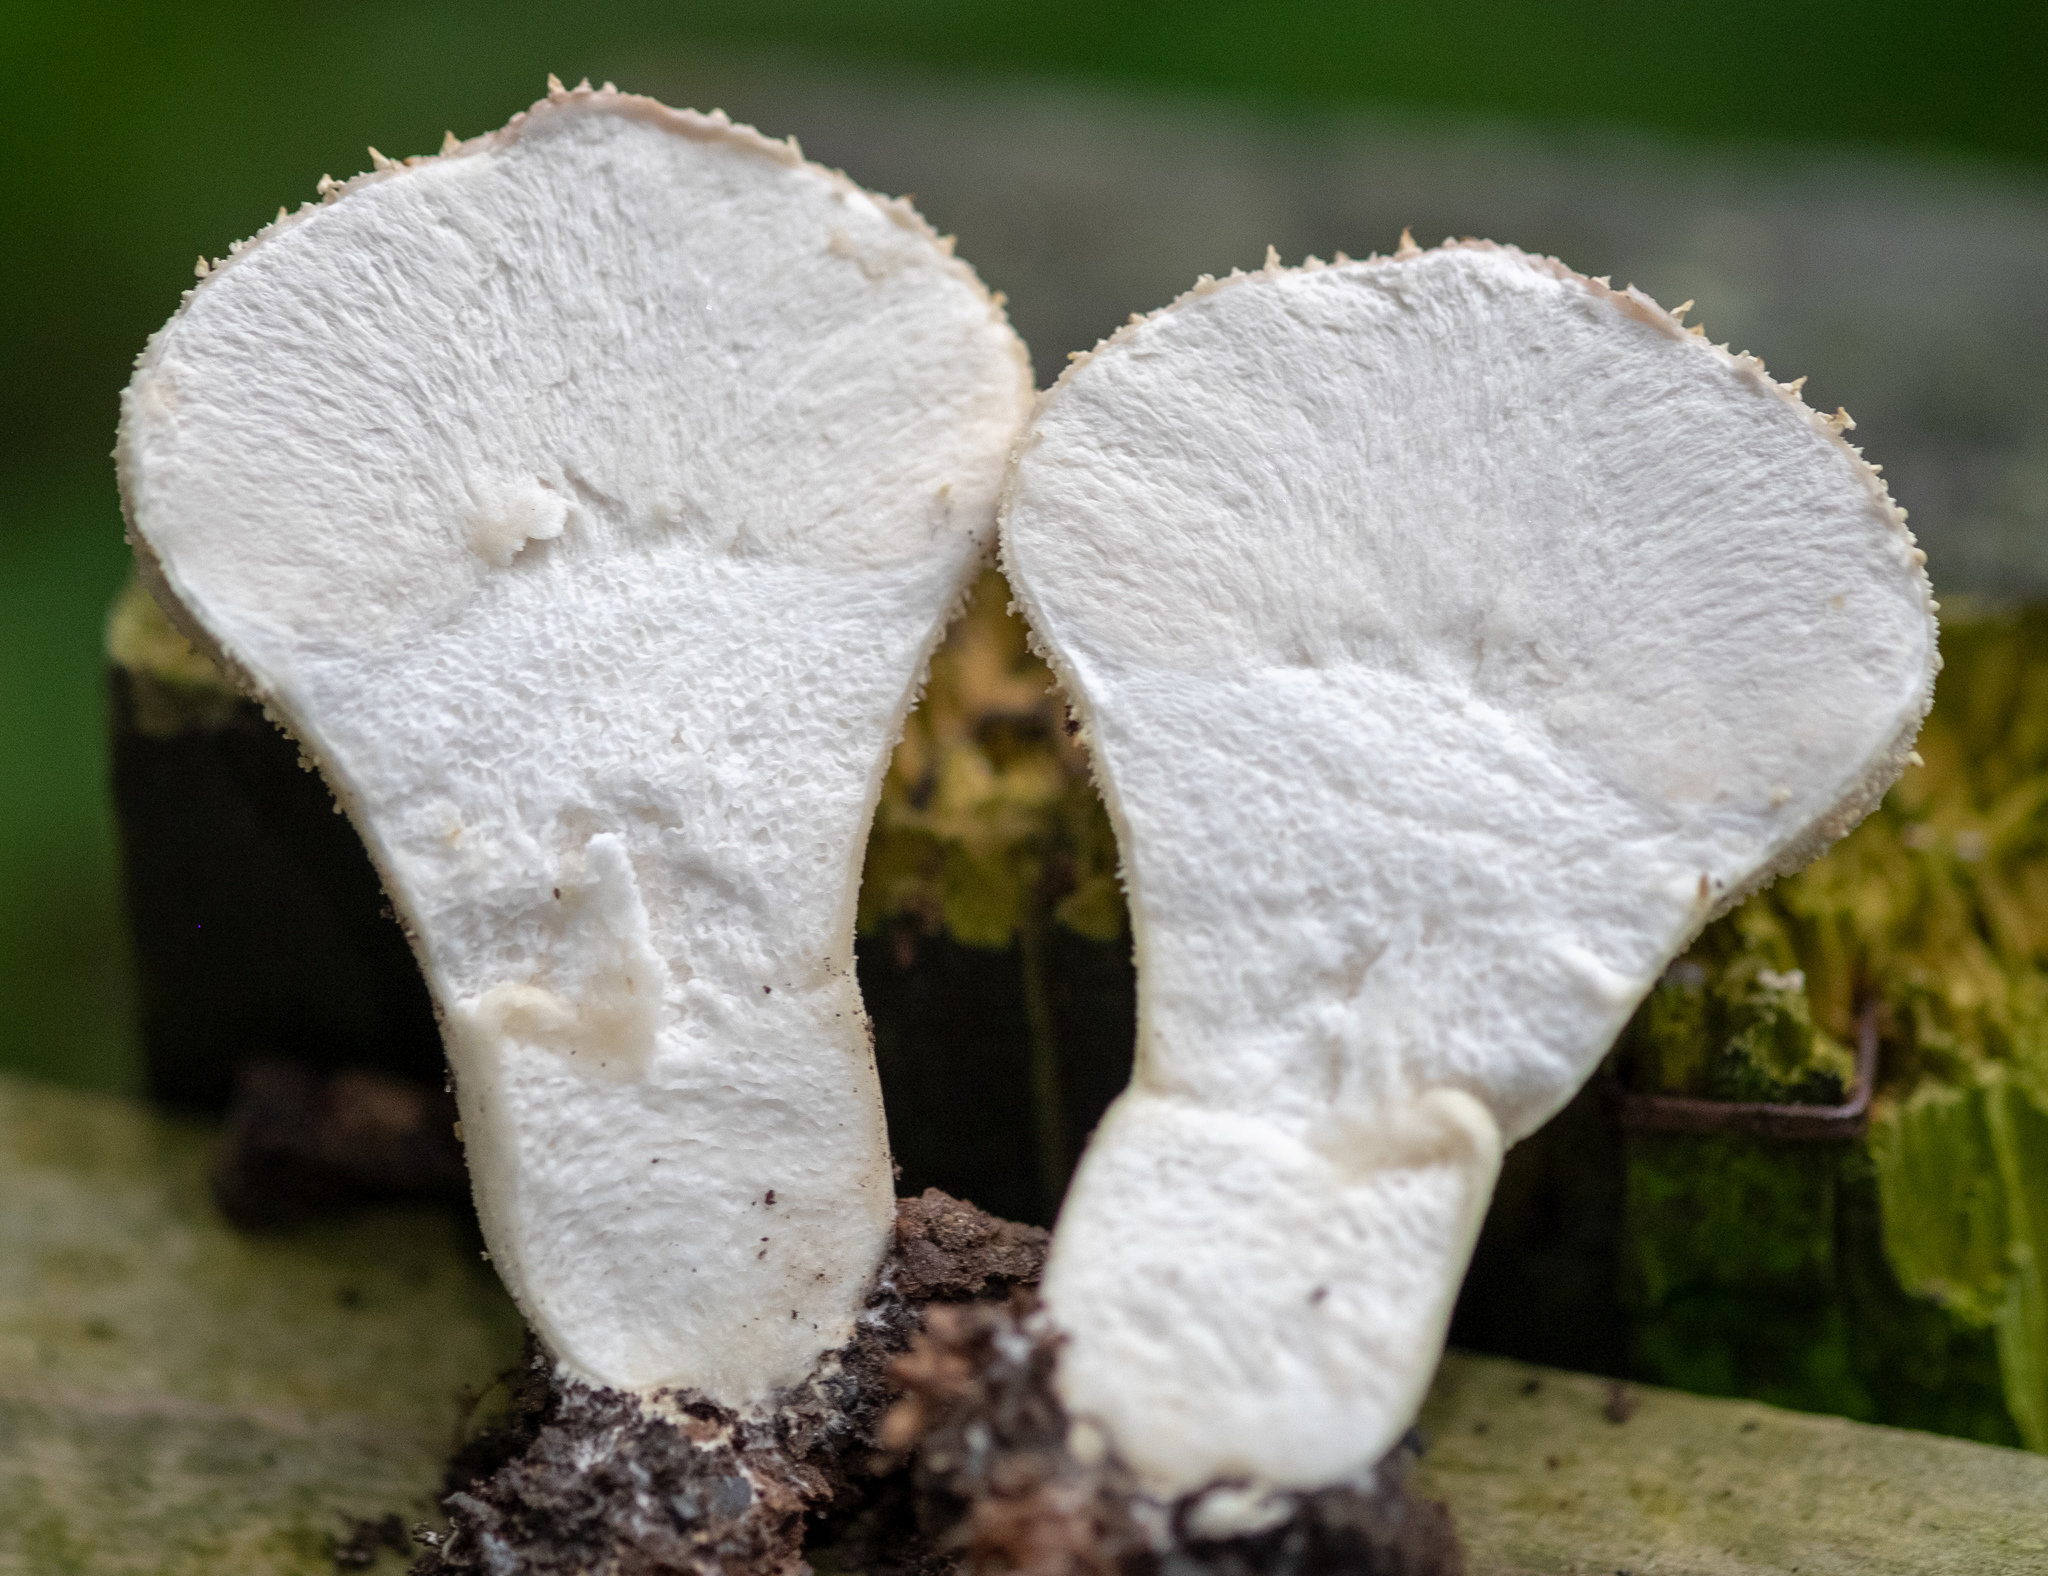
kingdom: Fungi
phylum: Basidiomycota
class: Agaricomycetes
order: Agaricales
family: Lycoperdaceae
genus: Lycoperdon
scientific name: Lycoperdon perlatum
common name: Common puffball
